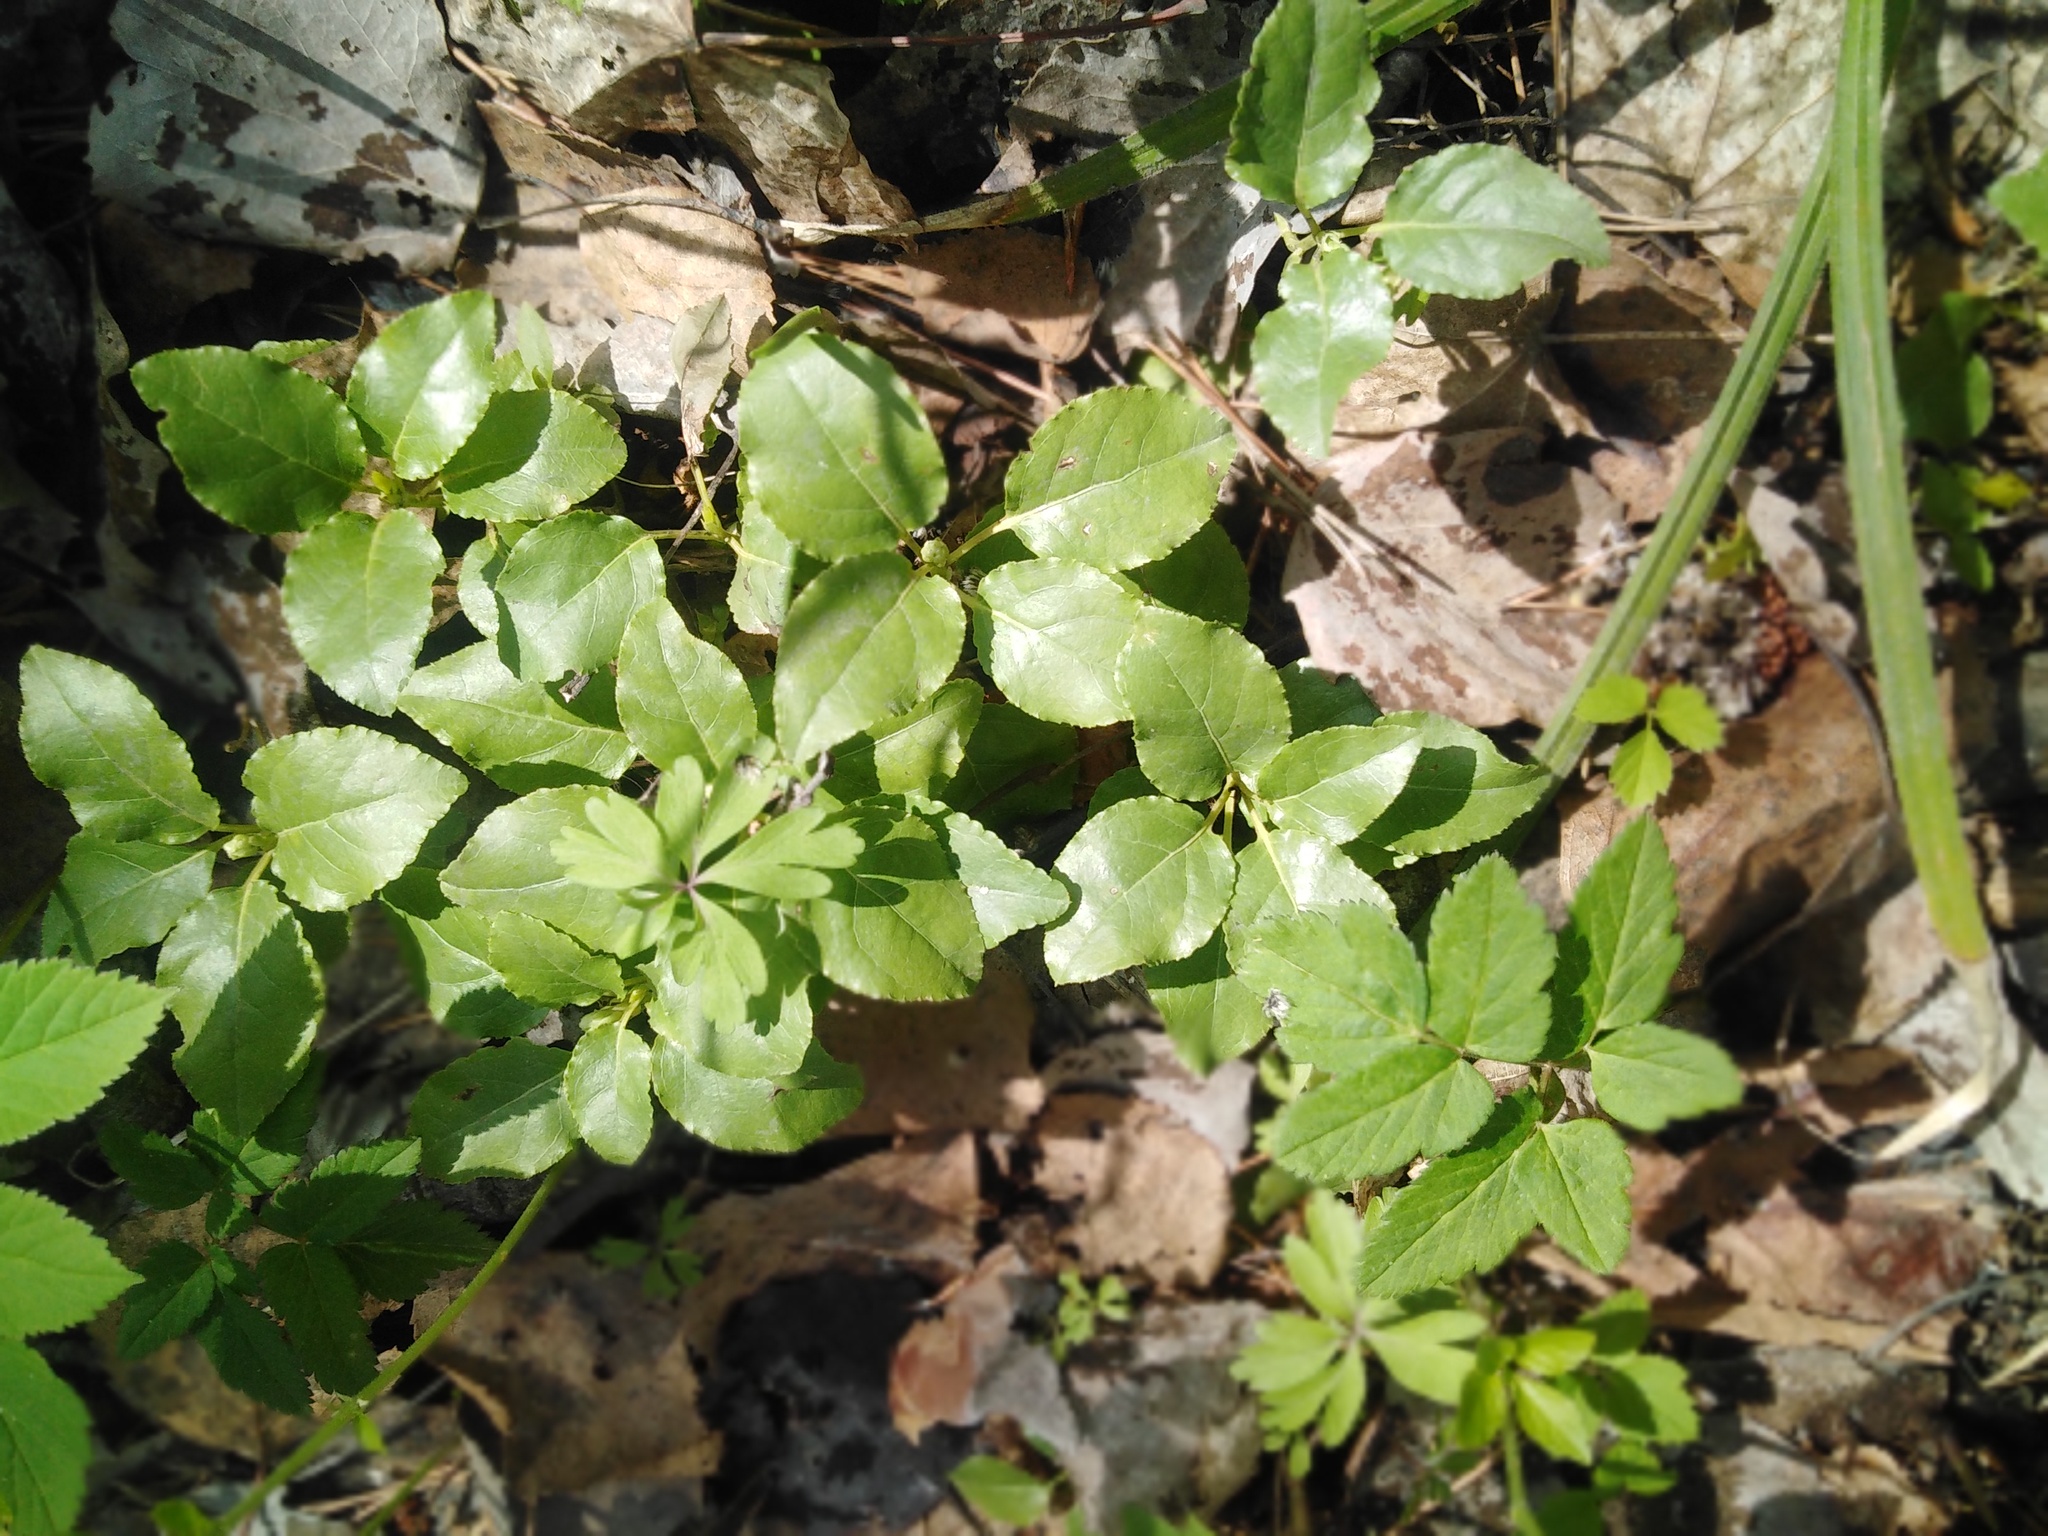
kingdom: Plantae
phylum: Tracheophyta
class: Magnoliopsida
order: Ericales
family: Ericaceae
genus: Orthilia
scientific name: Orthilia secunda
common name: One-sided orthilia
